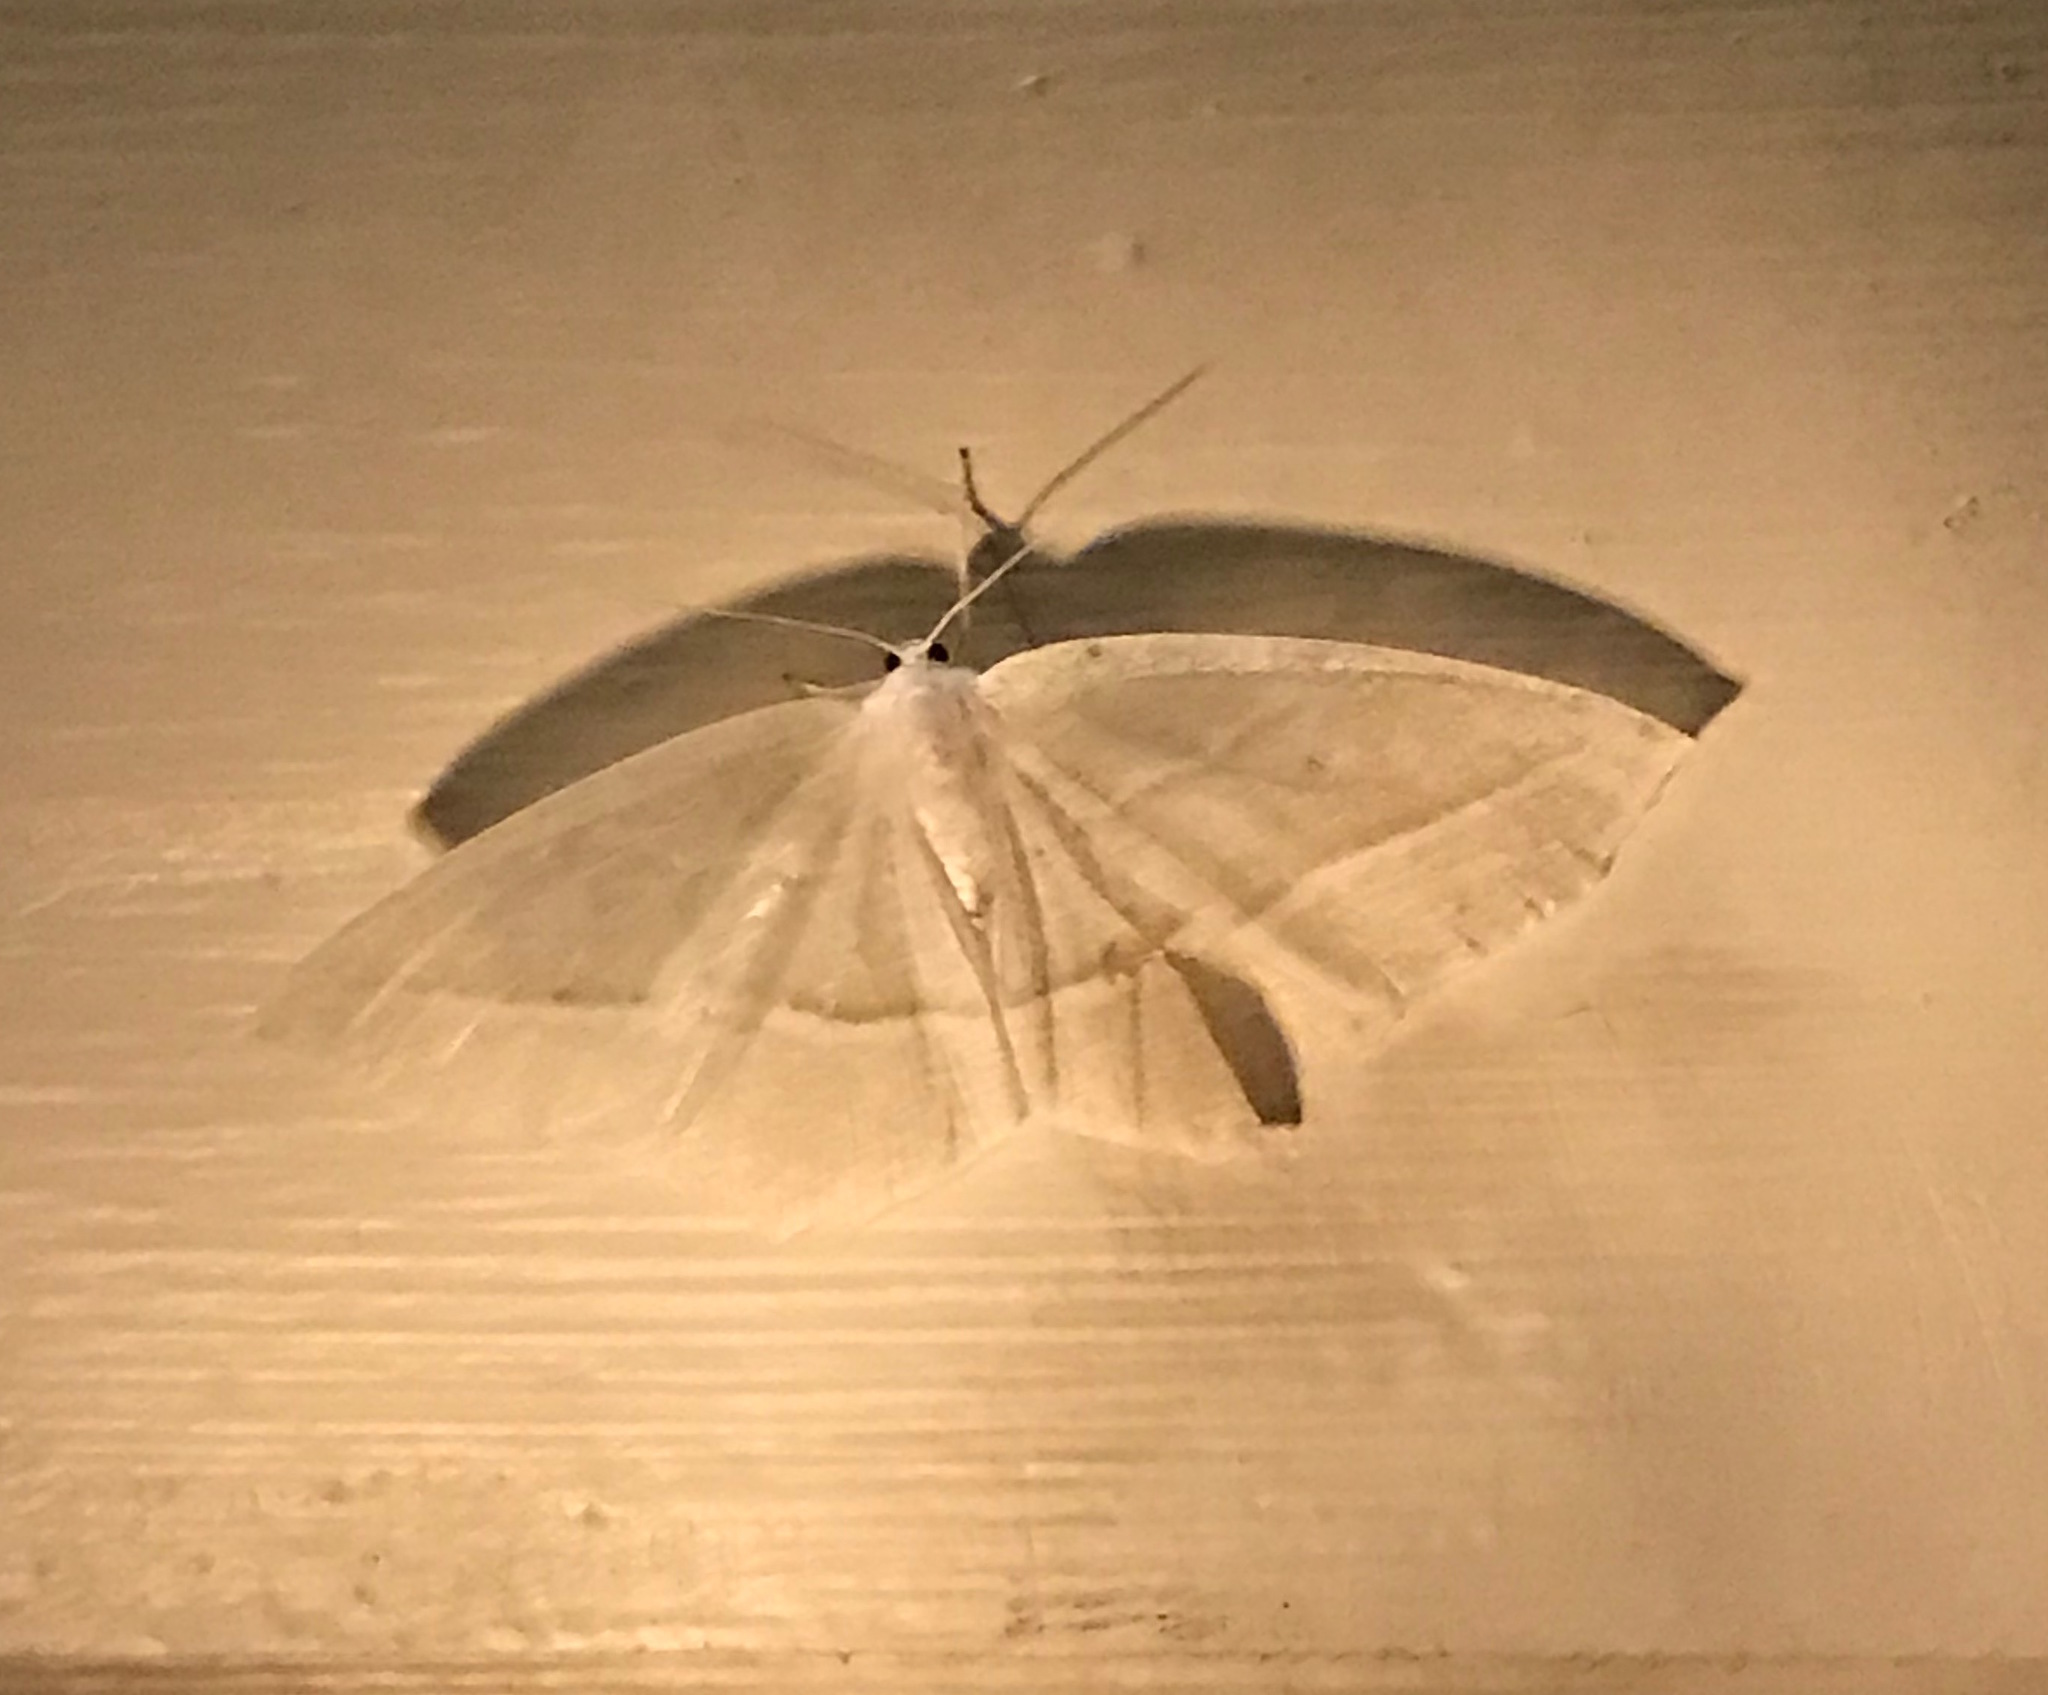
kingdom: Animalia
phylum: Arthropoda
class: Insecta
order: Lepidoptera
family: Geometridae
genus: Campaea
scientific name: Campaea perlata
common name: Fringed looper
